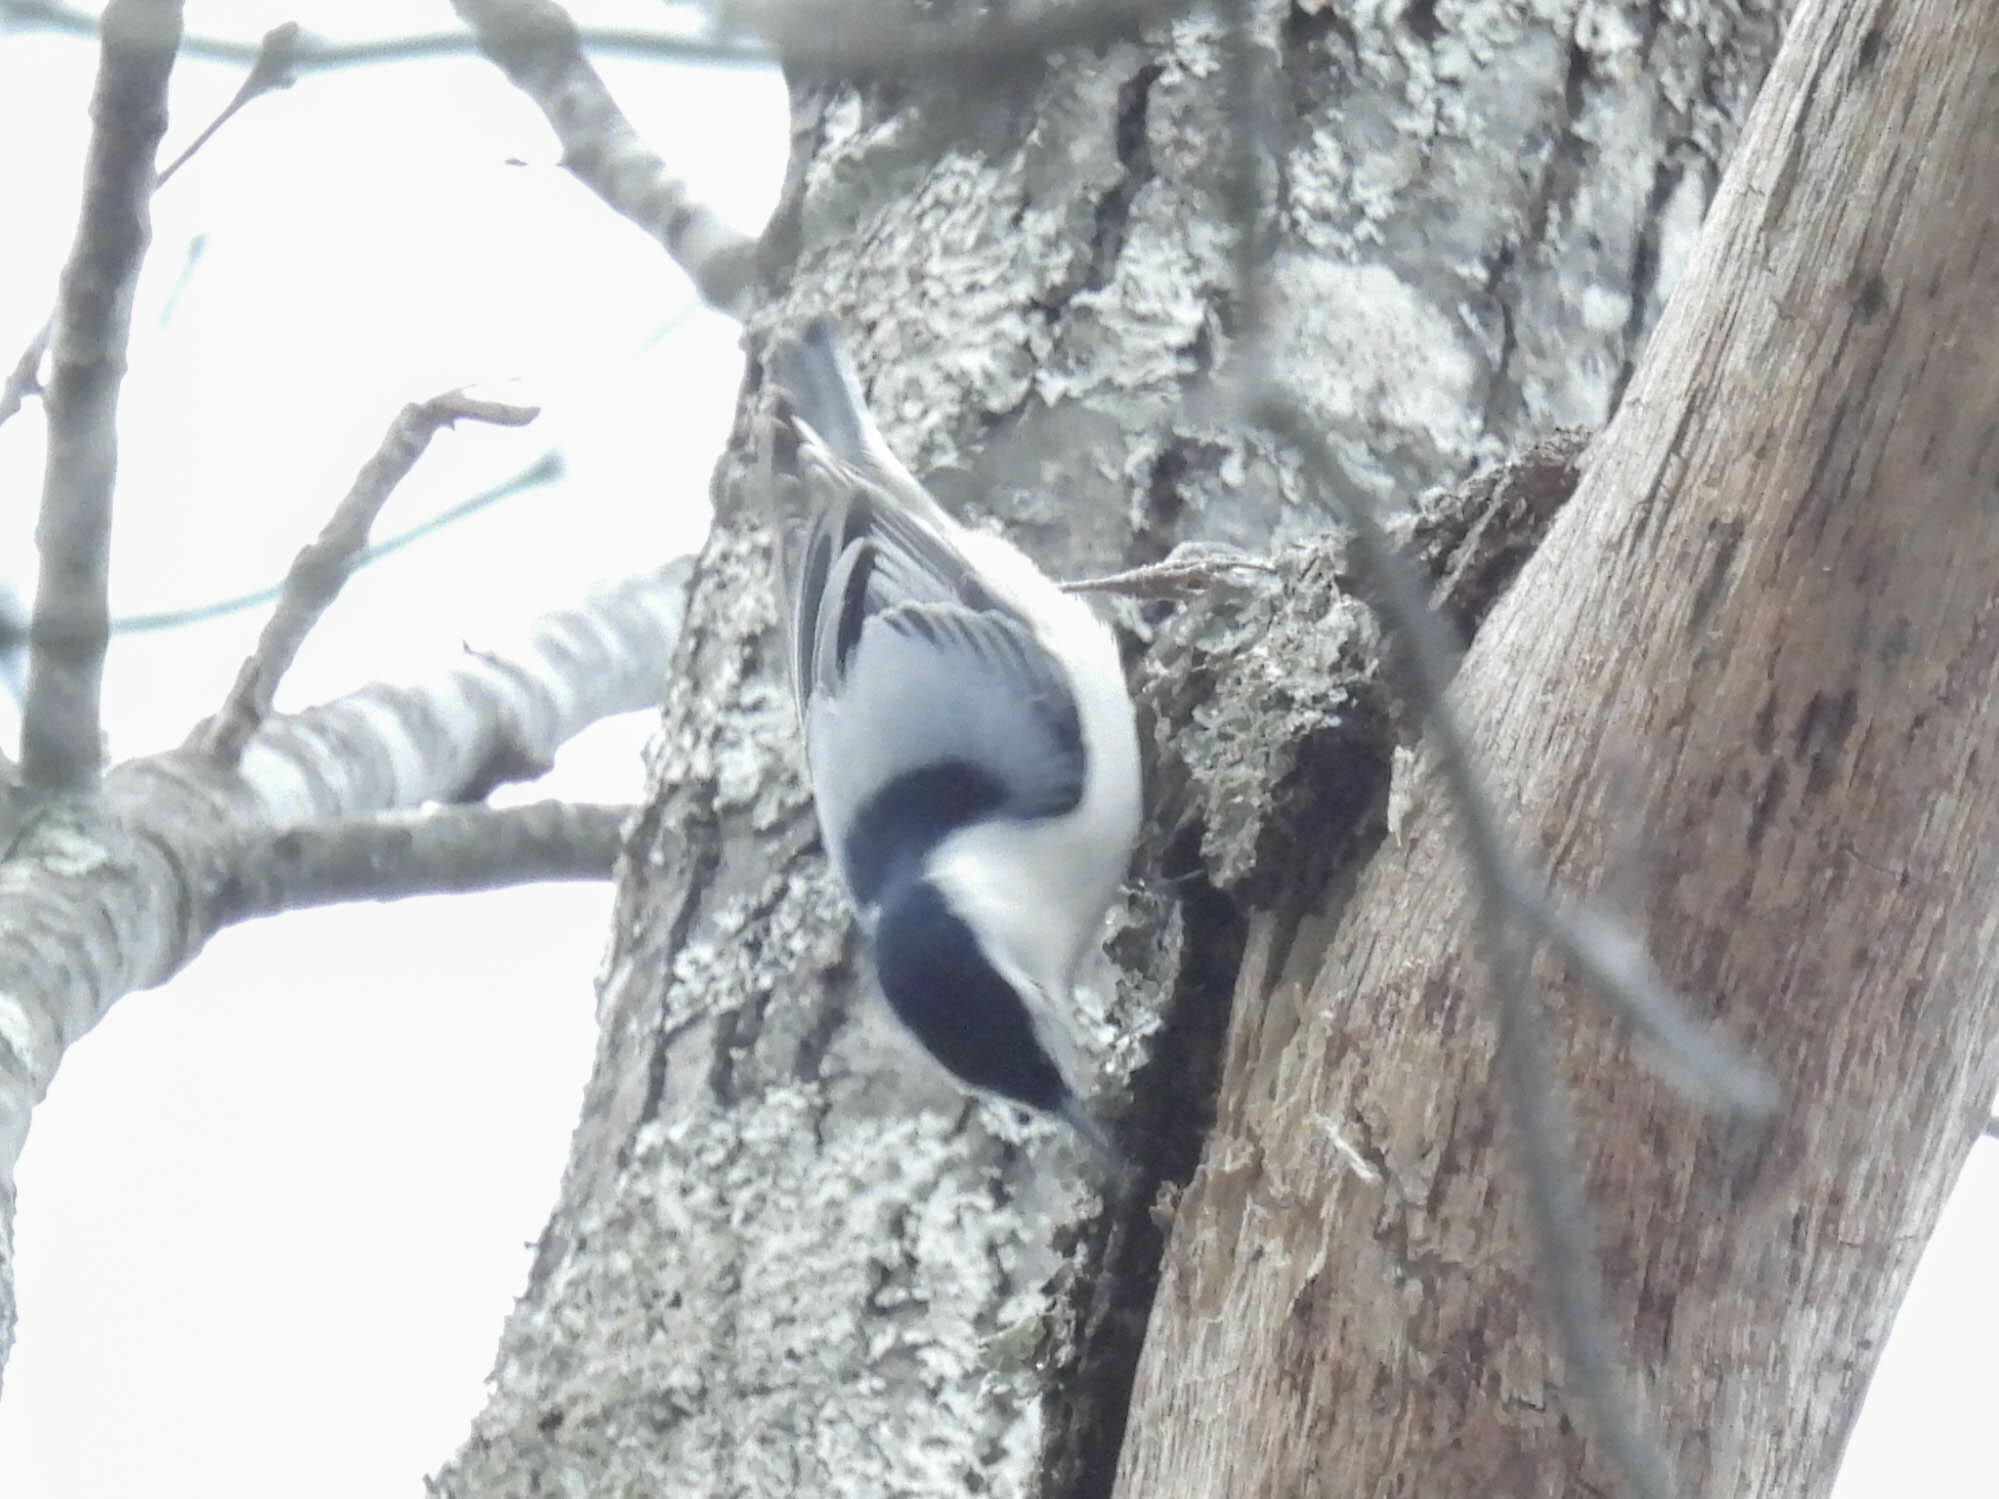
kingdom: Animalia
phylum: Chordata
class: Aves
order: Passeriformes
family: Sittidae
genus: Sitta
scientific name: Sitta carolinensis
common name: White-breasted nuthatch
